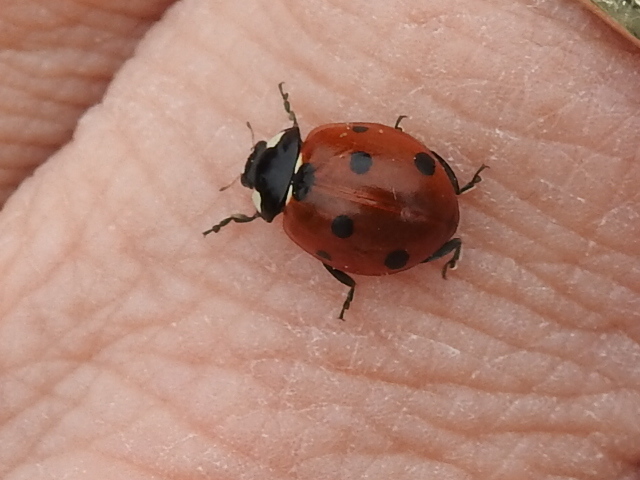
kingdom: Animalia
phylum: Arthropoda
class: Insecta
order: Coleoptera
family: Coccinellidae
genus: Coccinella
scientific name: Coccinella septempunctata
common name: Sevenspotted lady beetle
